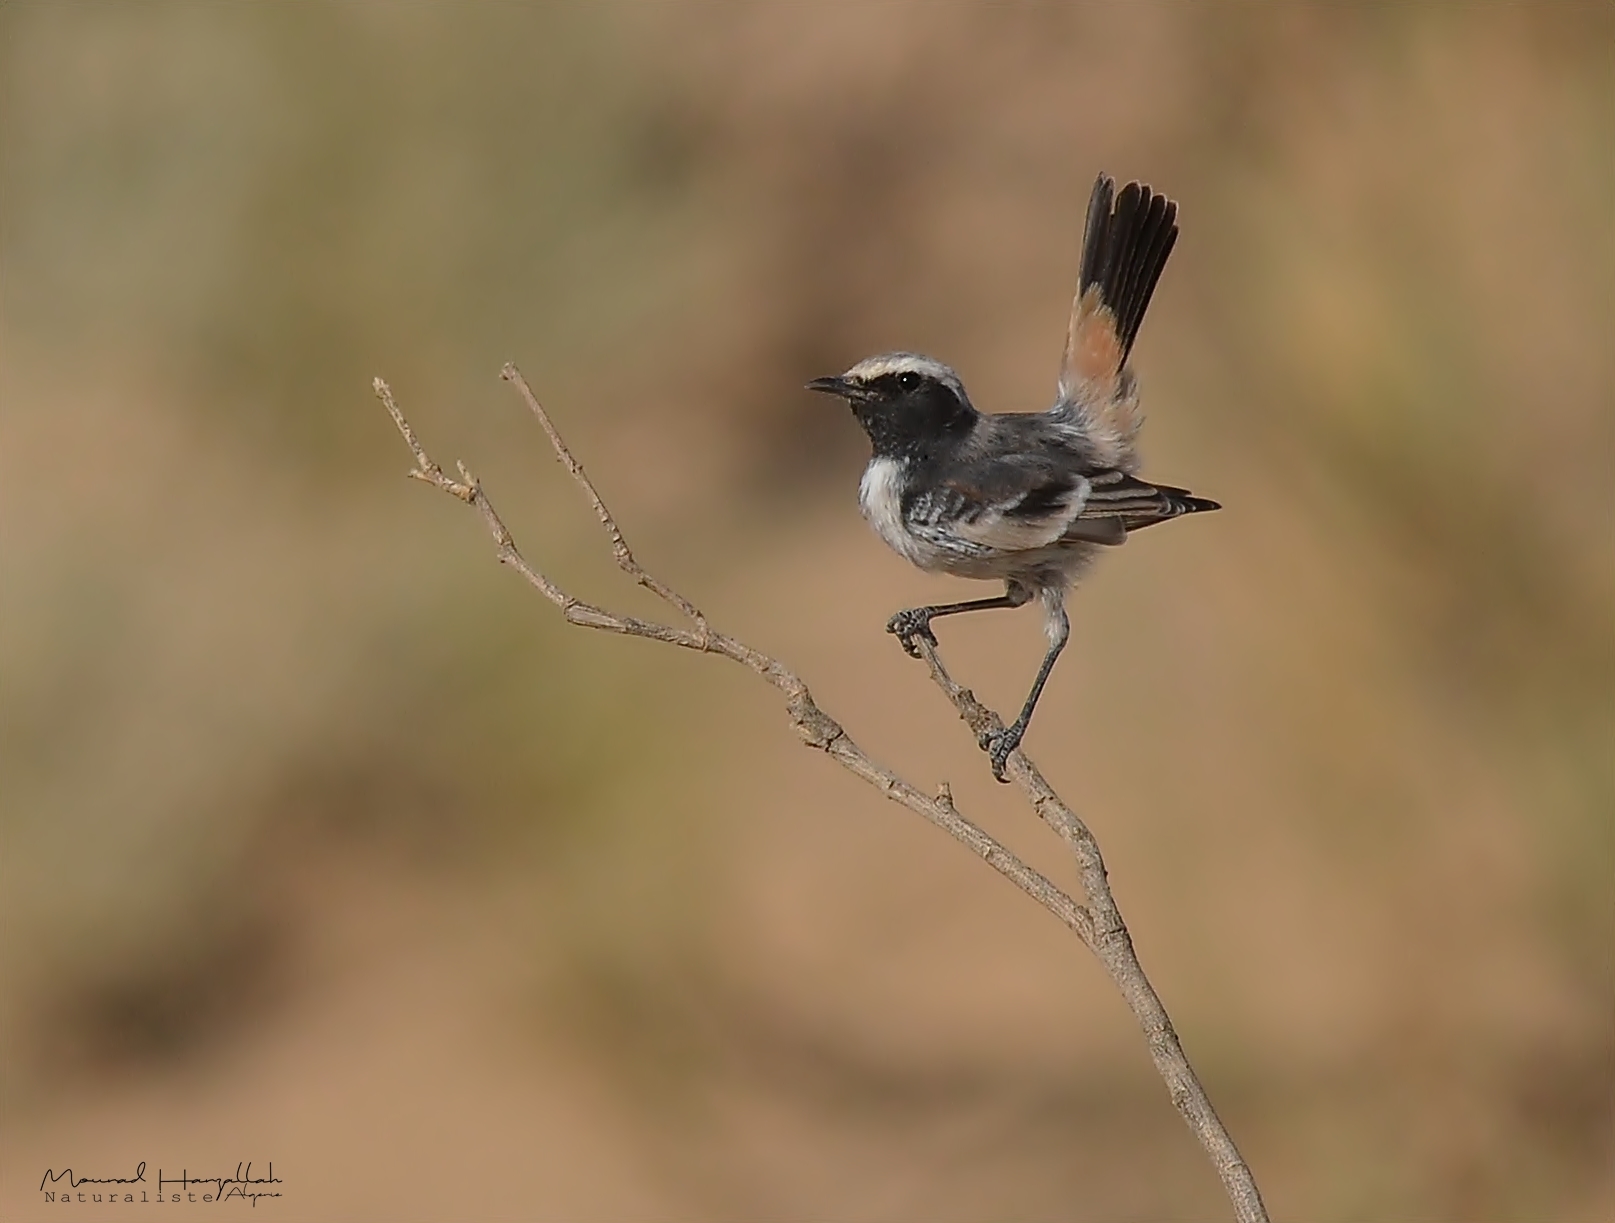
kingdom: Animalia
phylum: Chordata
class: Aves
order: Passeriformes
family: Muscicapidae
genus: Oenanthe
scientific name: Oenanthe moesta
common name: Red-rumped wheatear
